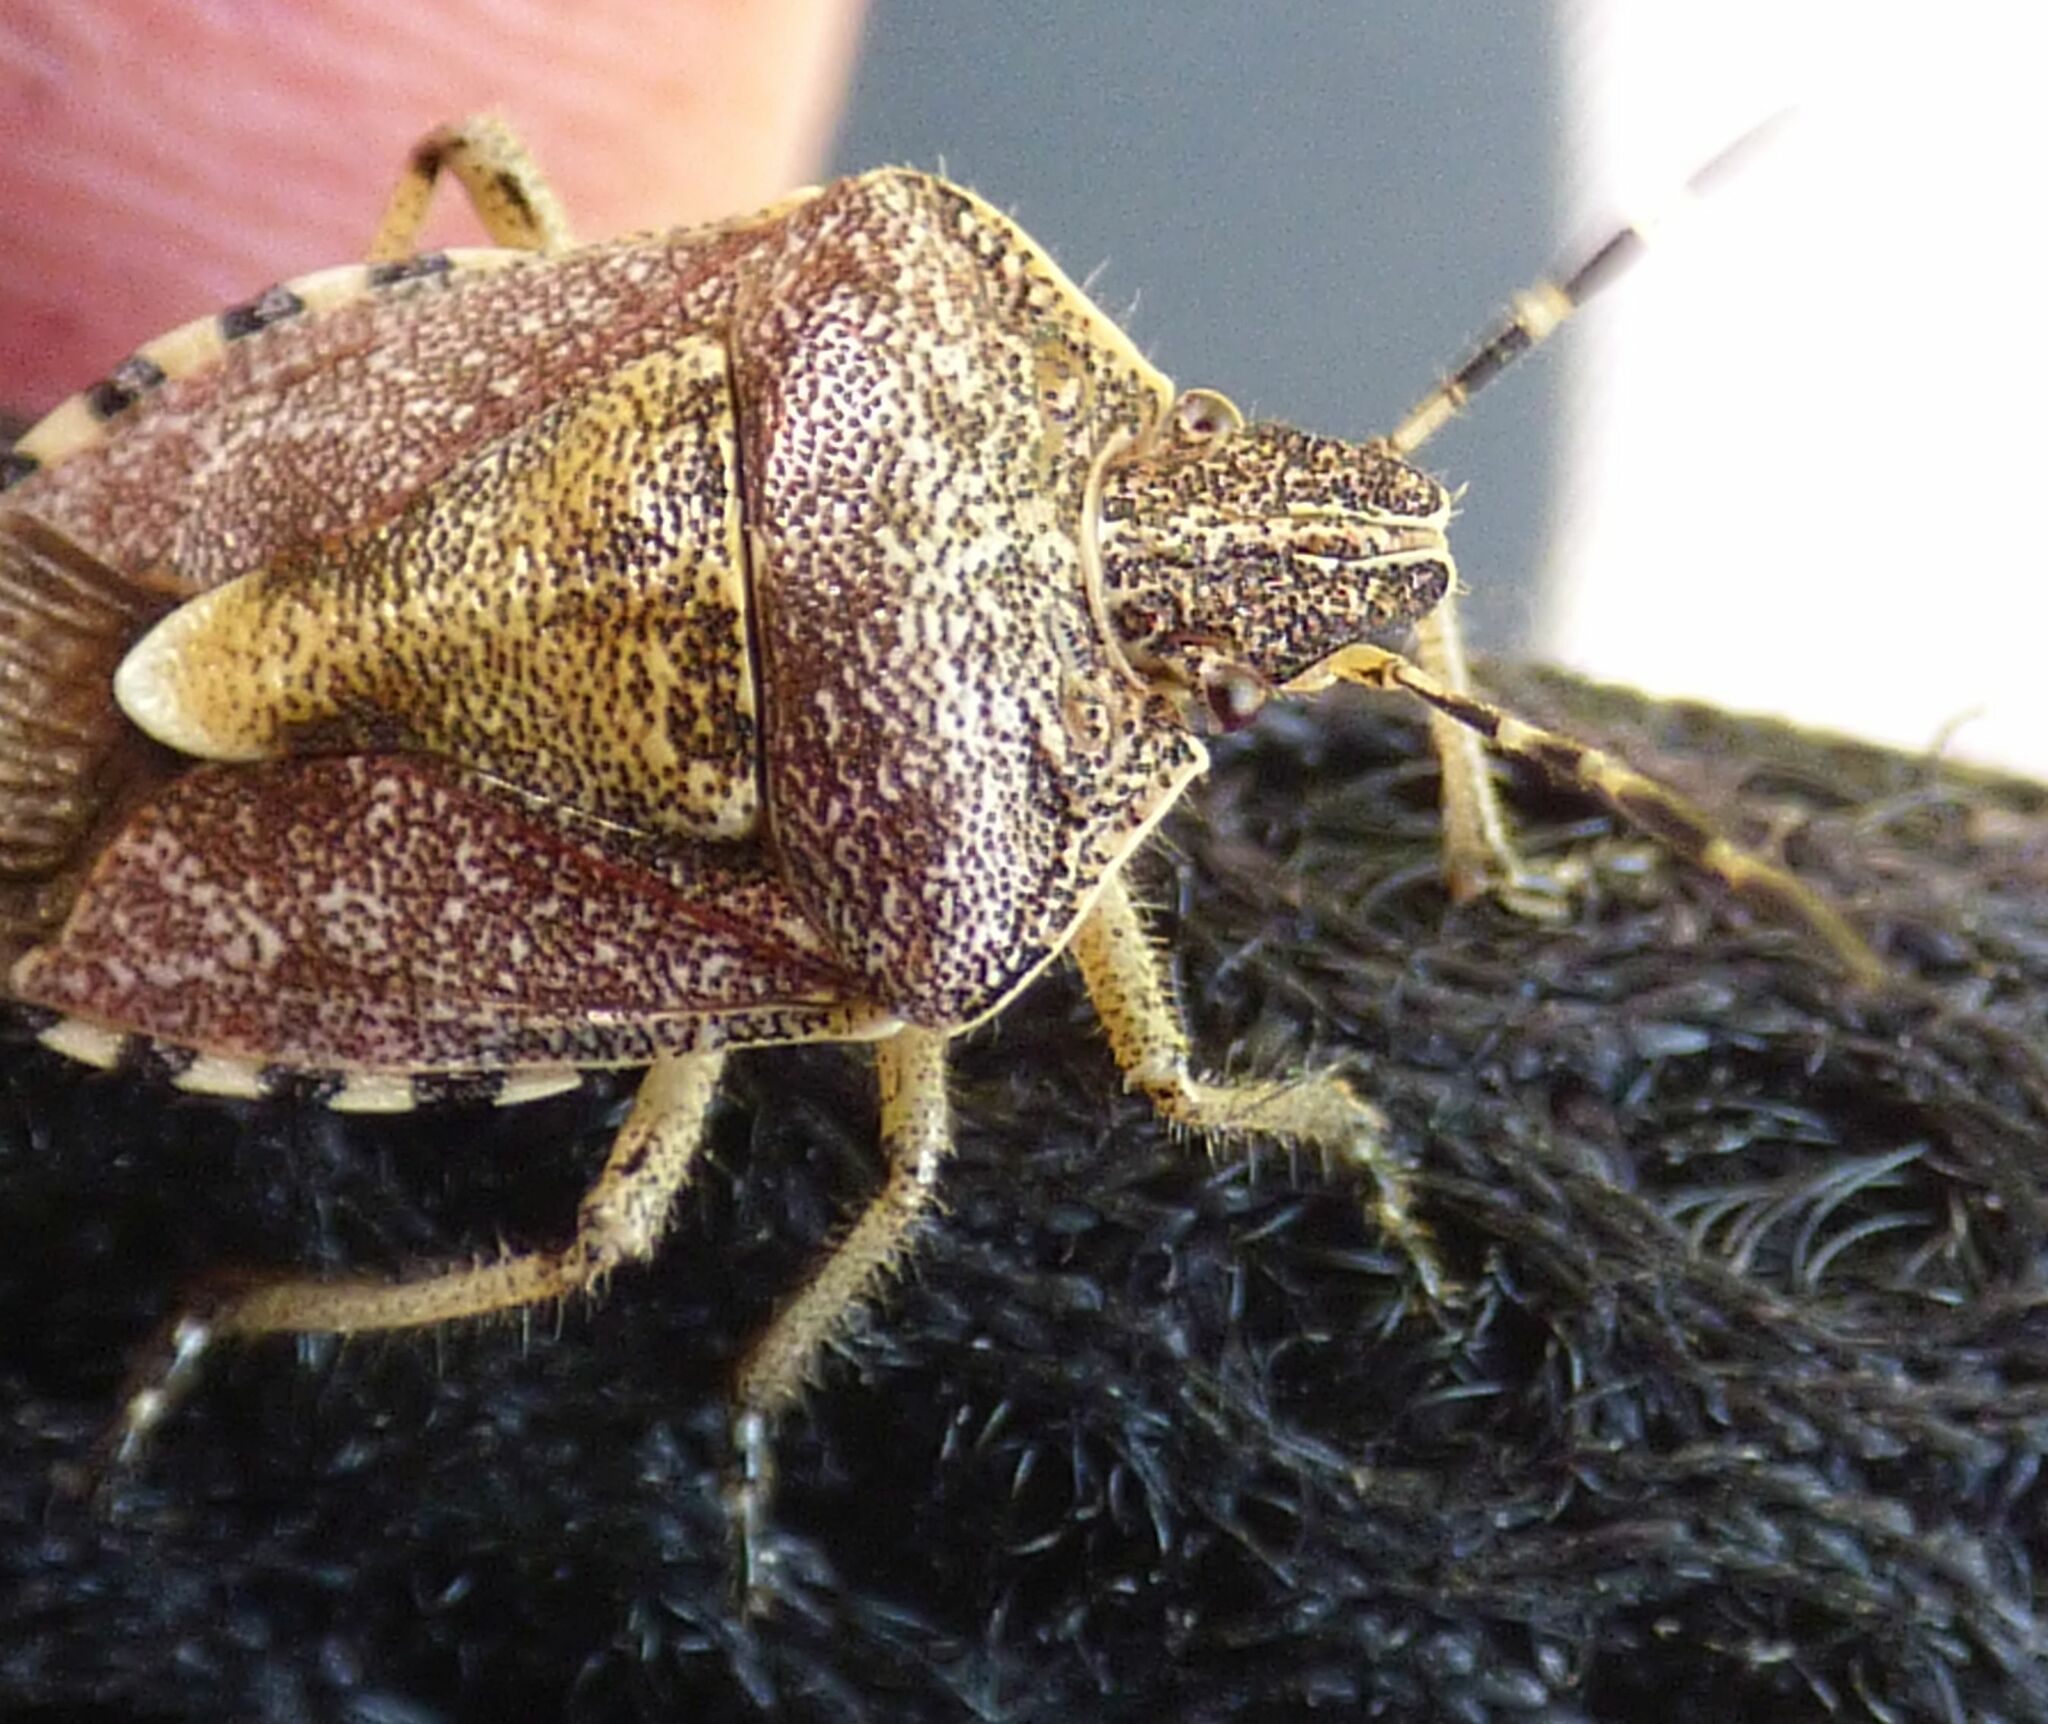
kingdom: Animalia
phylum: Arthropoda
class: Insecta
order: Hemiptera
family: Pentatomidae
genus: Dolycoris
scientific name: Dolycoris baccarum
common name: Sloe bug
